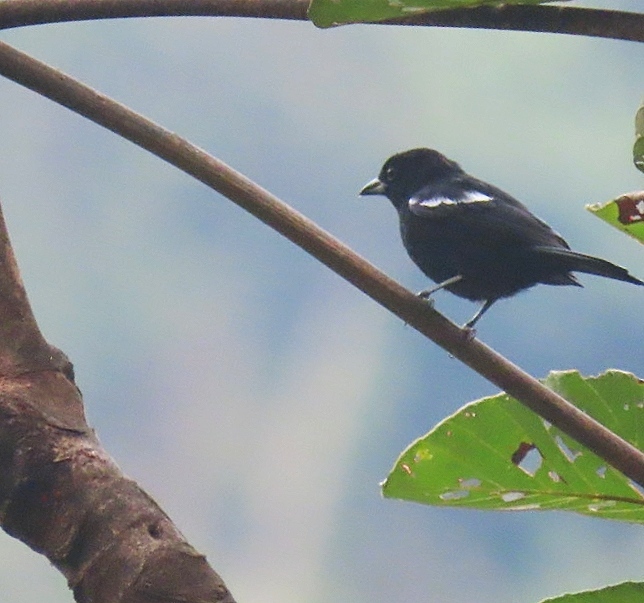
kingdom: Animalia
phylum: Chordata
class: Aves
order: Passeriformes
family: Thraupidae
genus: Loriotus
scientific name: Loriotus luctuosus
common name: White-shouldered tanager
